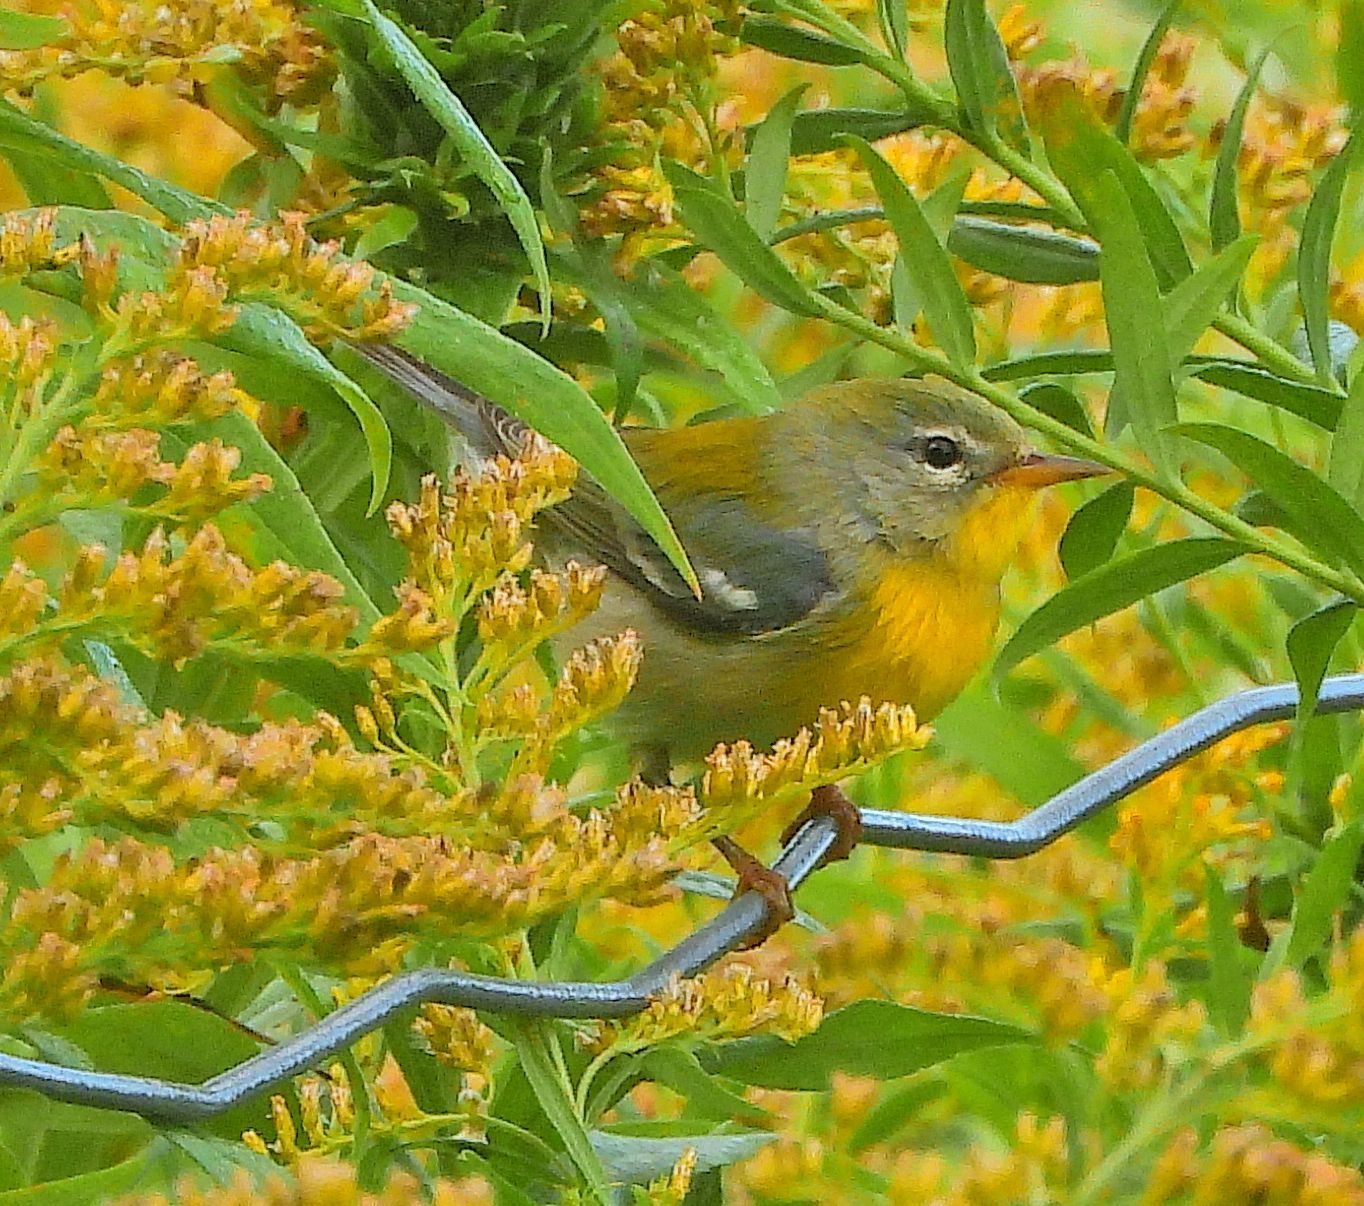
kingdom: Animalia
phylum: Chordata
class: Aves
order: Passeriformes
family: Parulidae
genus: Setophaga
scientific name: Setophaga americana
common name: Northern parula
